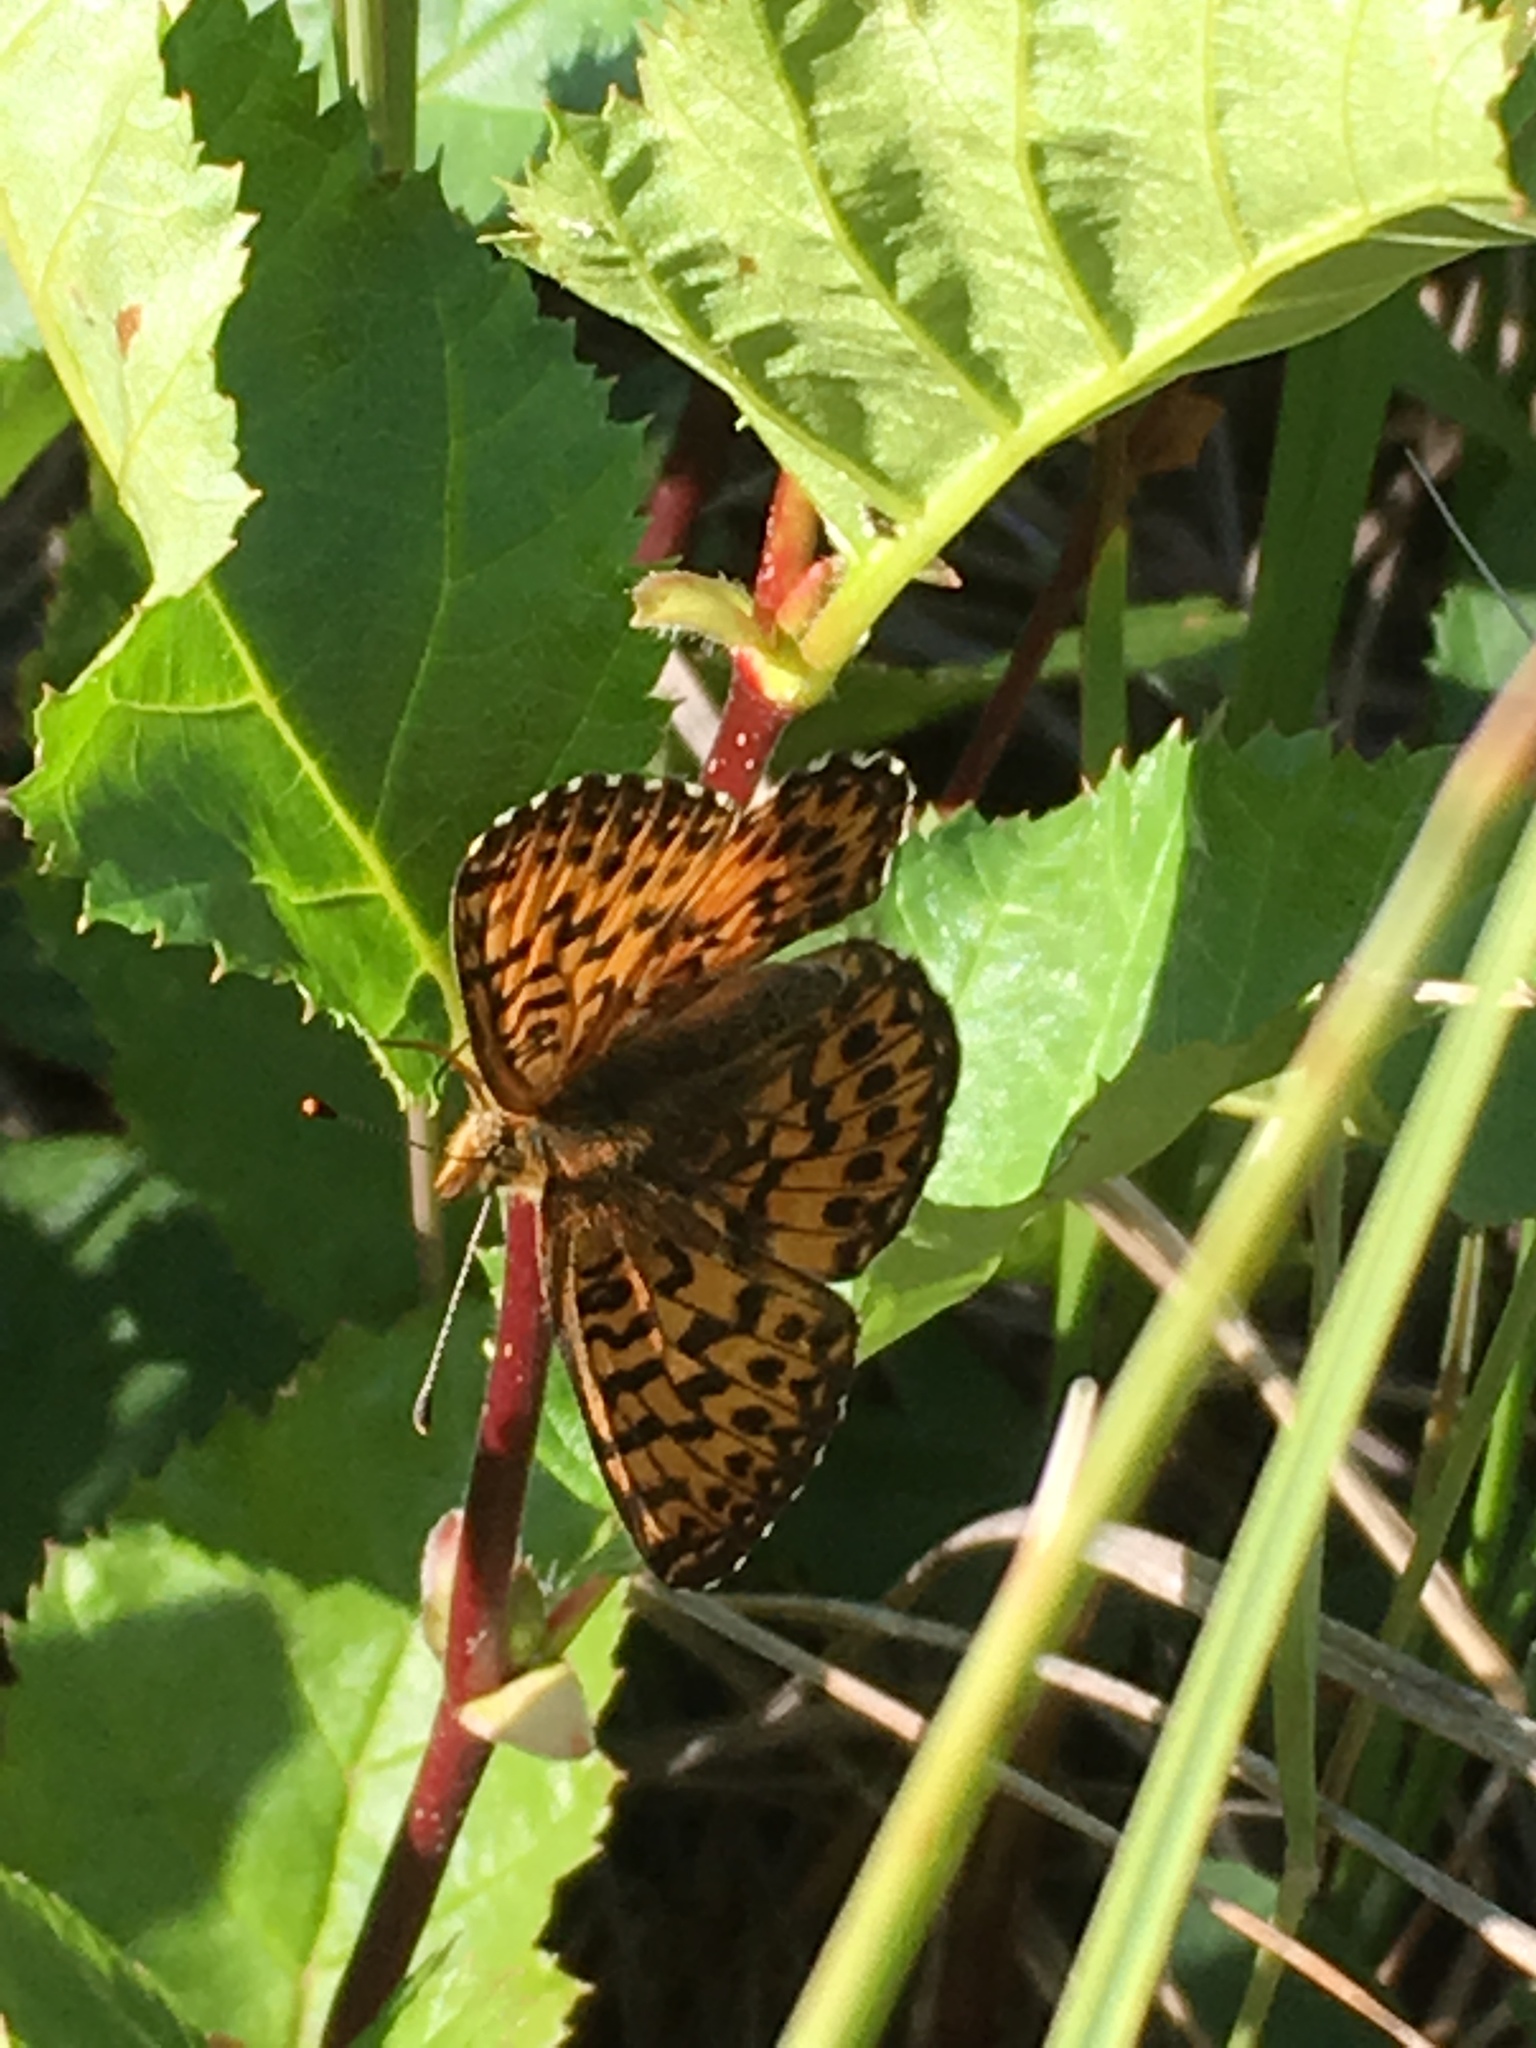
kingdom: Animalia
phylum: Arthropoda
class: Insecta
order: Lepidoptera
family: Nymphalidae
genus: Boloria
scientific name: Boloria chariclea
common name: Arctic fritillary
